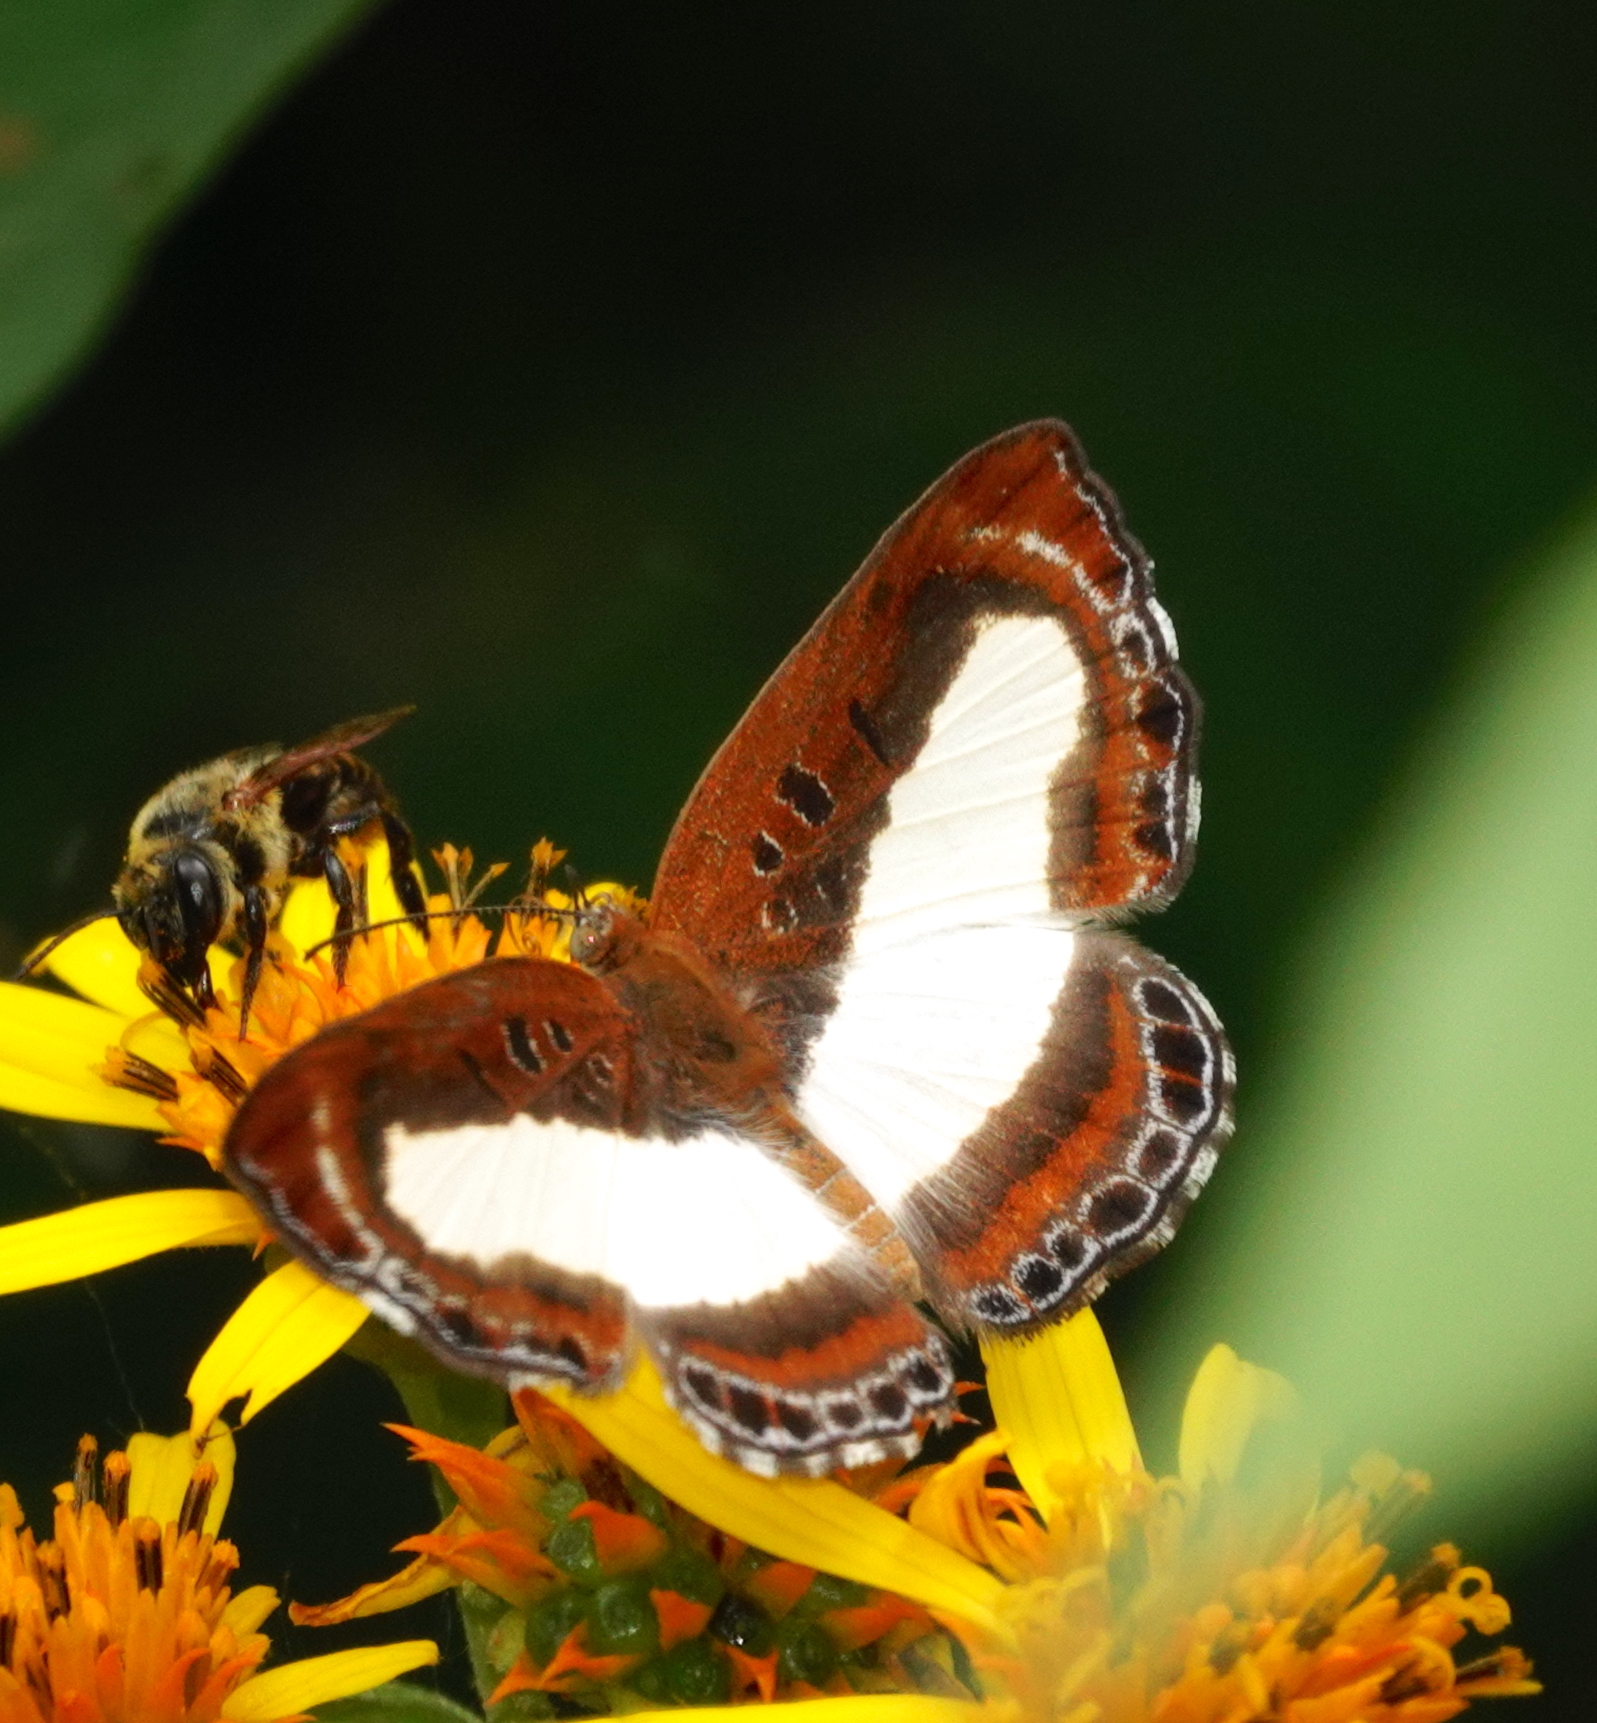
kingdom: Animalia
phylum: Arthropoda
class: Insecta
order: Lepidoptera
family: Riodinidae
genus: Nymula
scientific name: Nymula calyce
